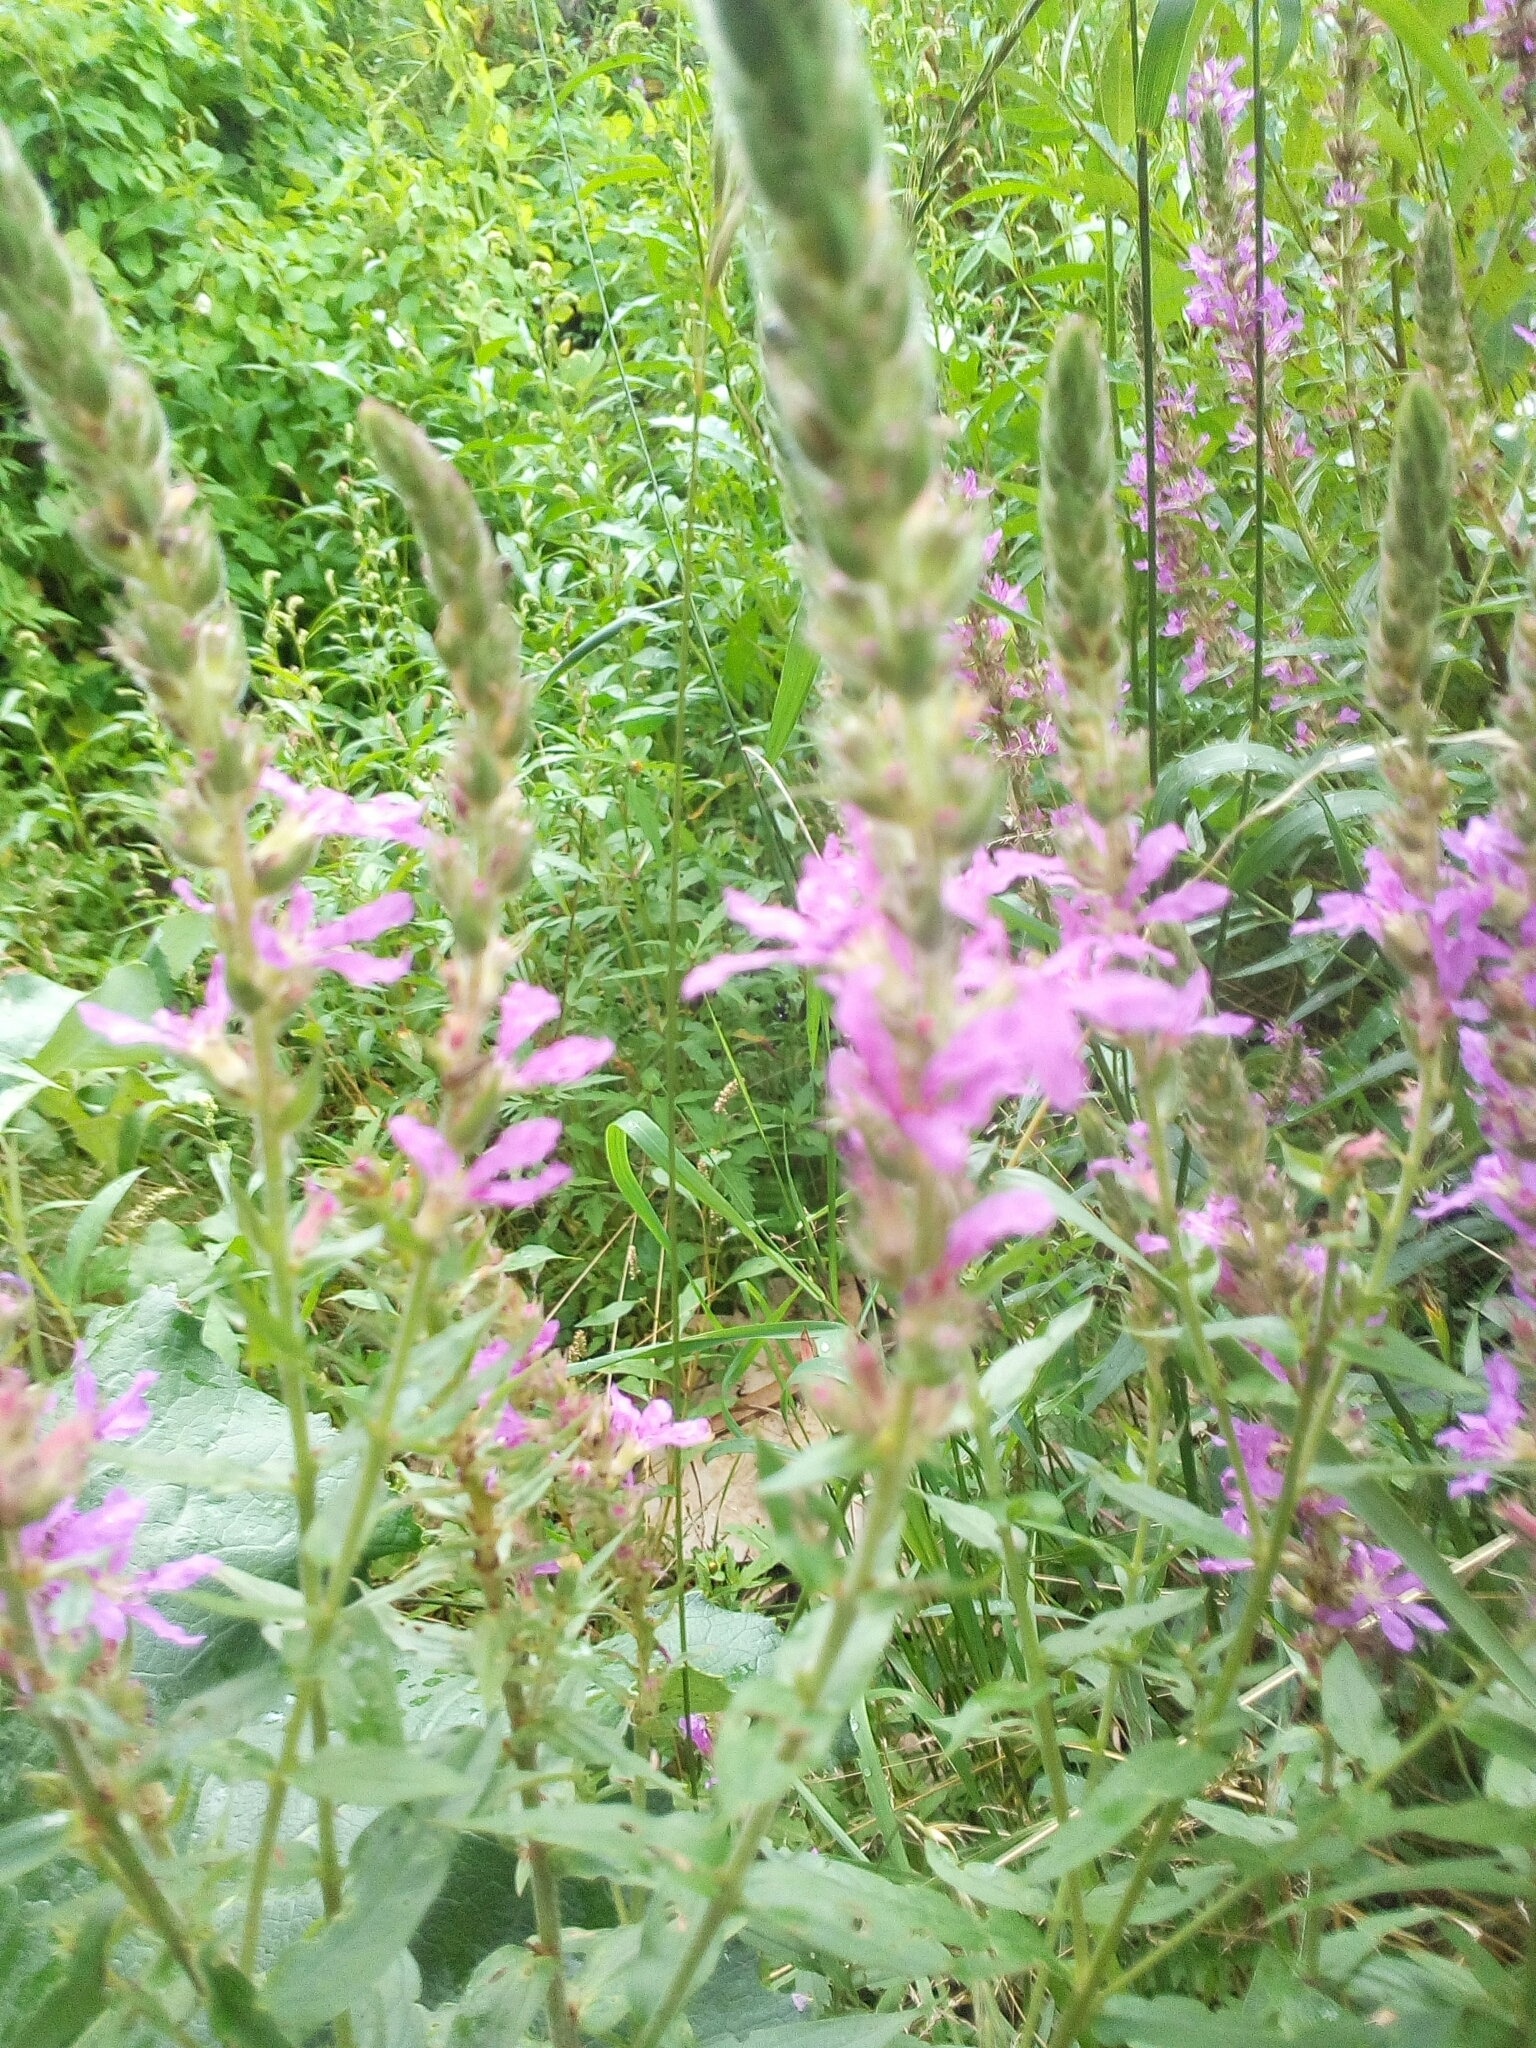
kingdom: Plantae
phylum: Tracheophyta
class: Magnoliopsida
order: Myrtales
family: Lythraceae
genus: Lythrum
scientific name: Lythrum salicaria
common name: Purple loosestrife
